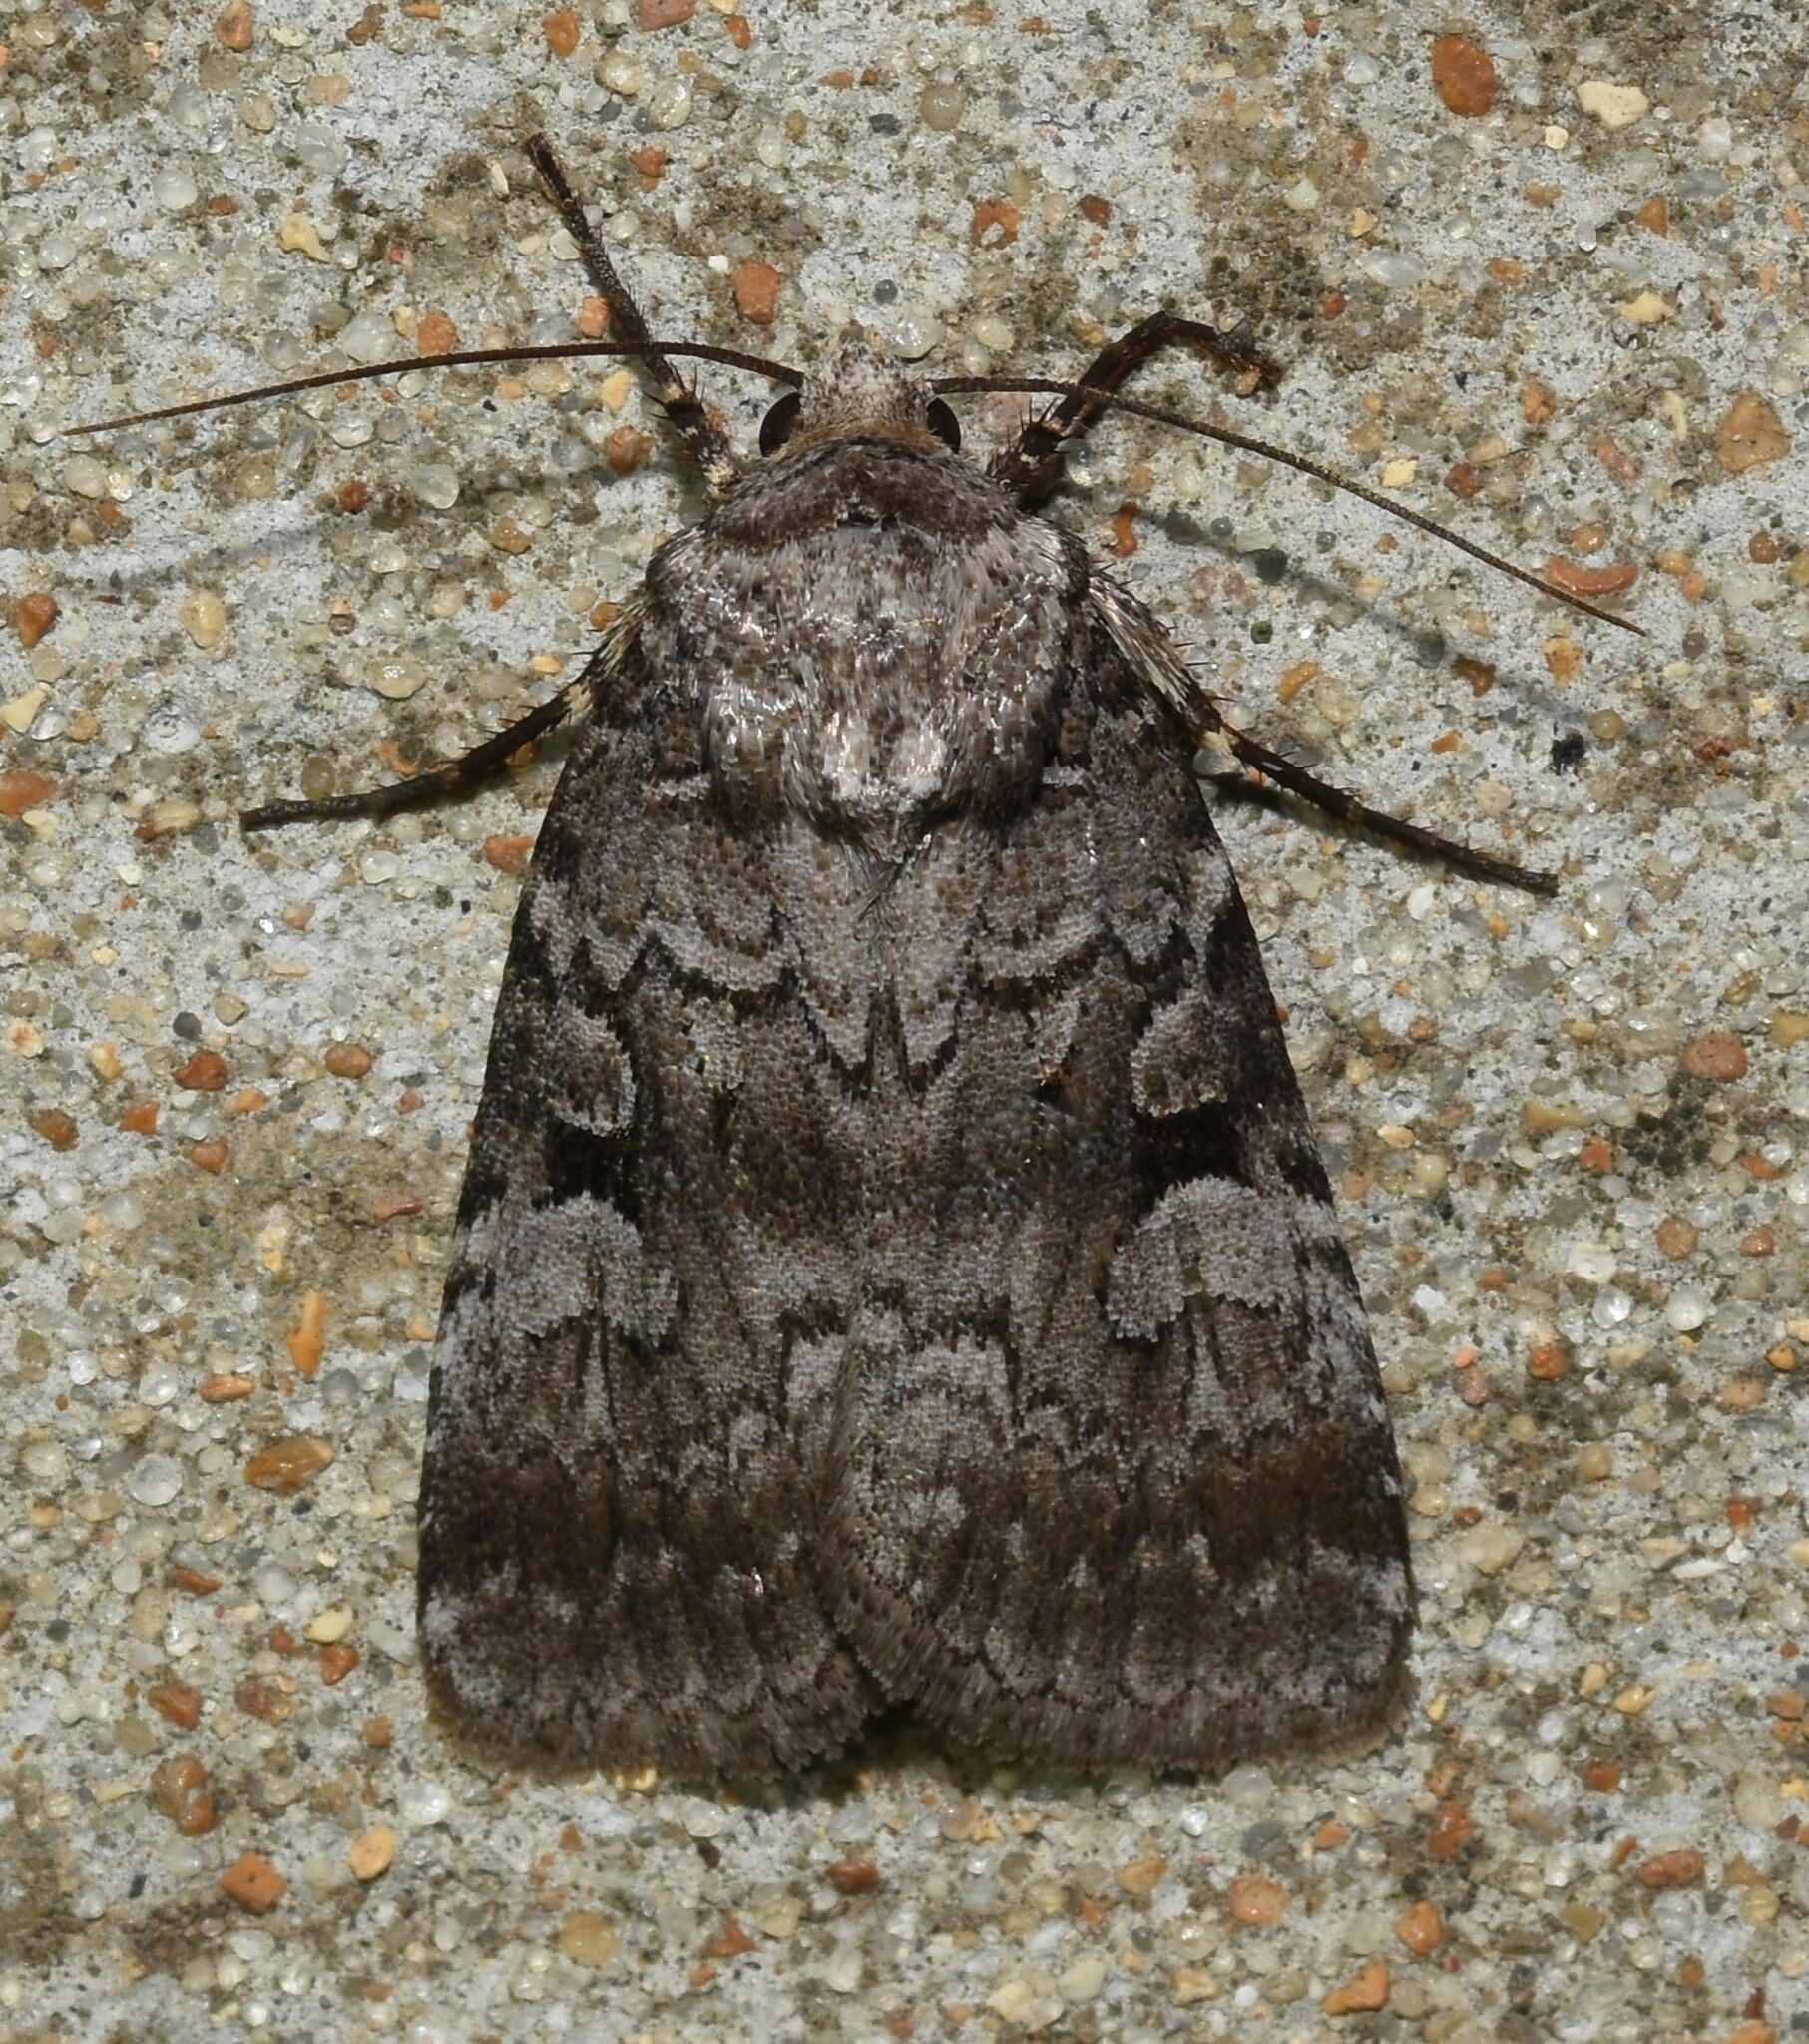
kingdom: Animalia
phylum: Arthropoda
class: Insecta
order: Lepidoptera
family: Noctuidae
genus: Feltia
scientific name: Feltia geniculata
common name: Knee-joint dart
